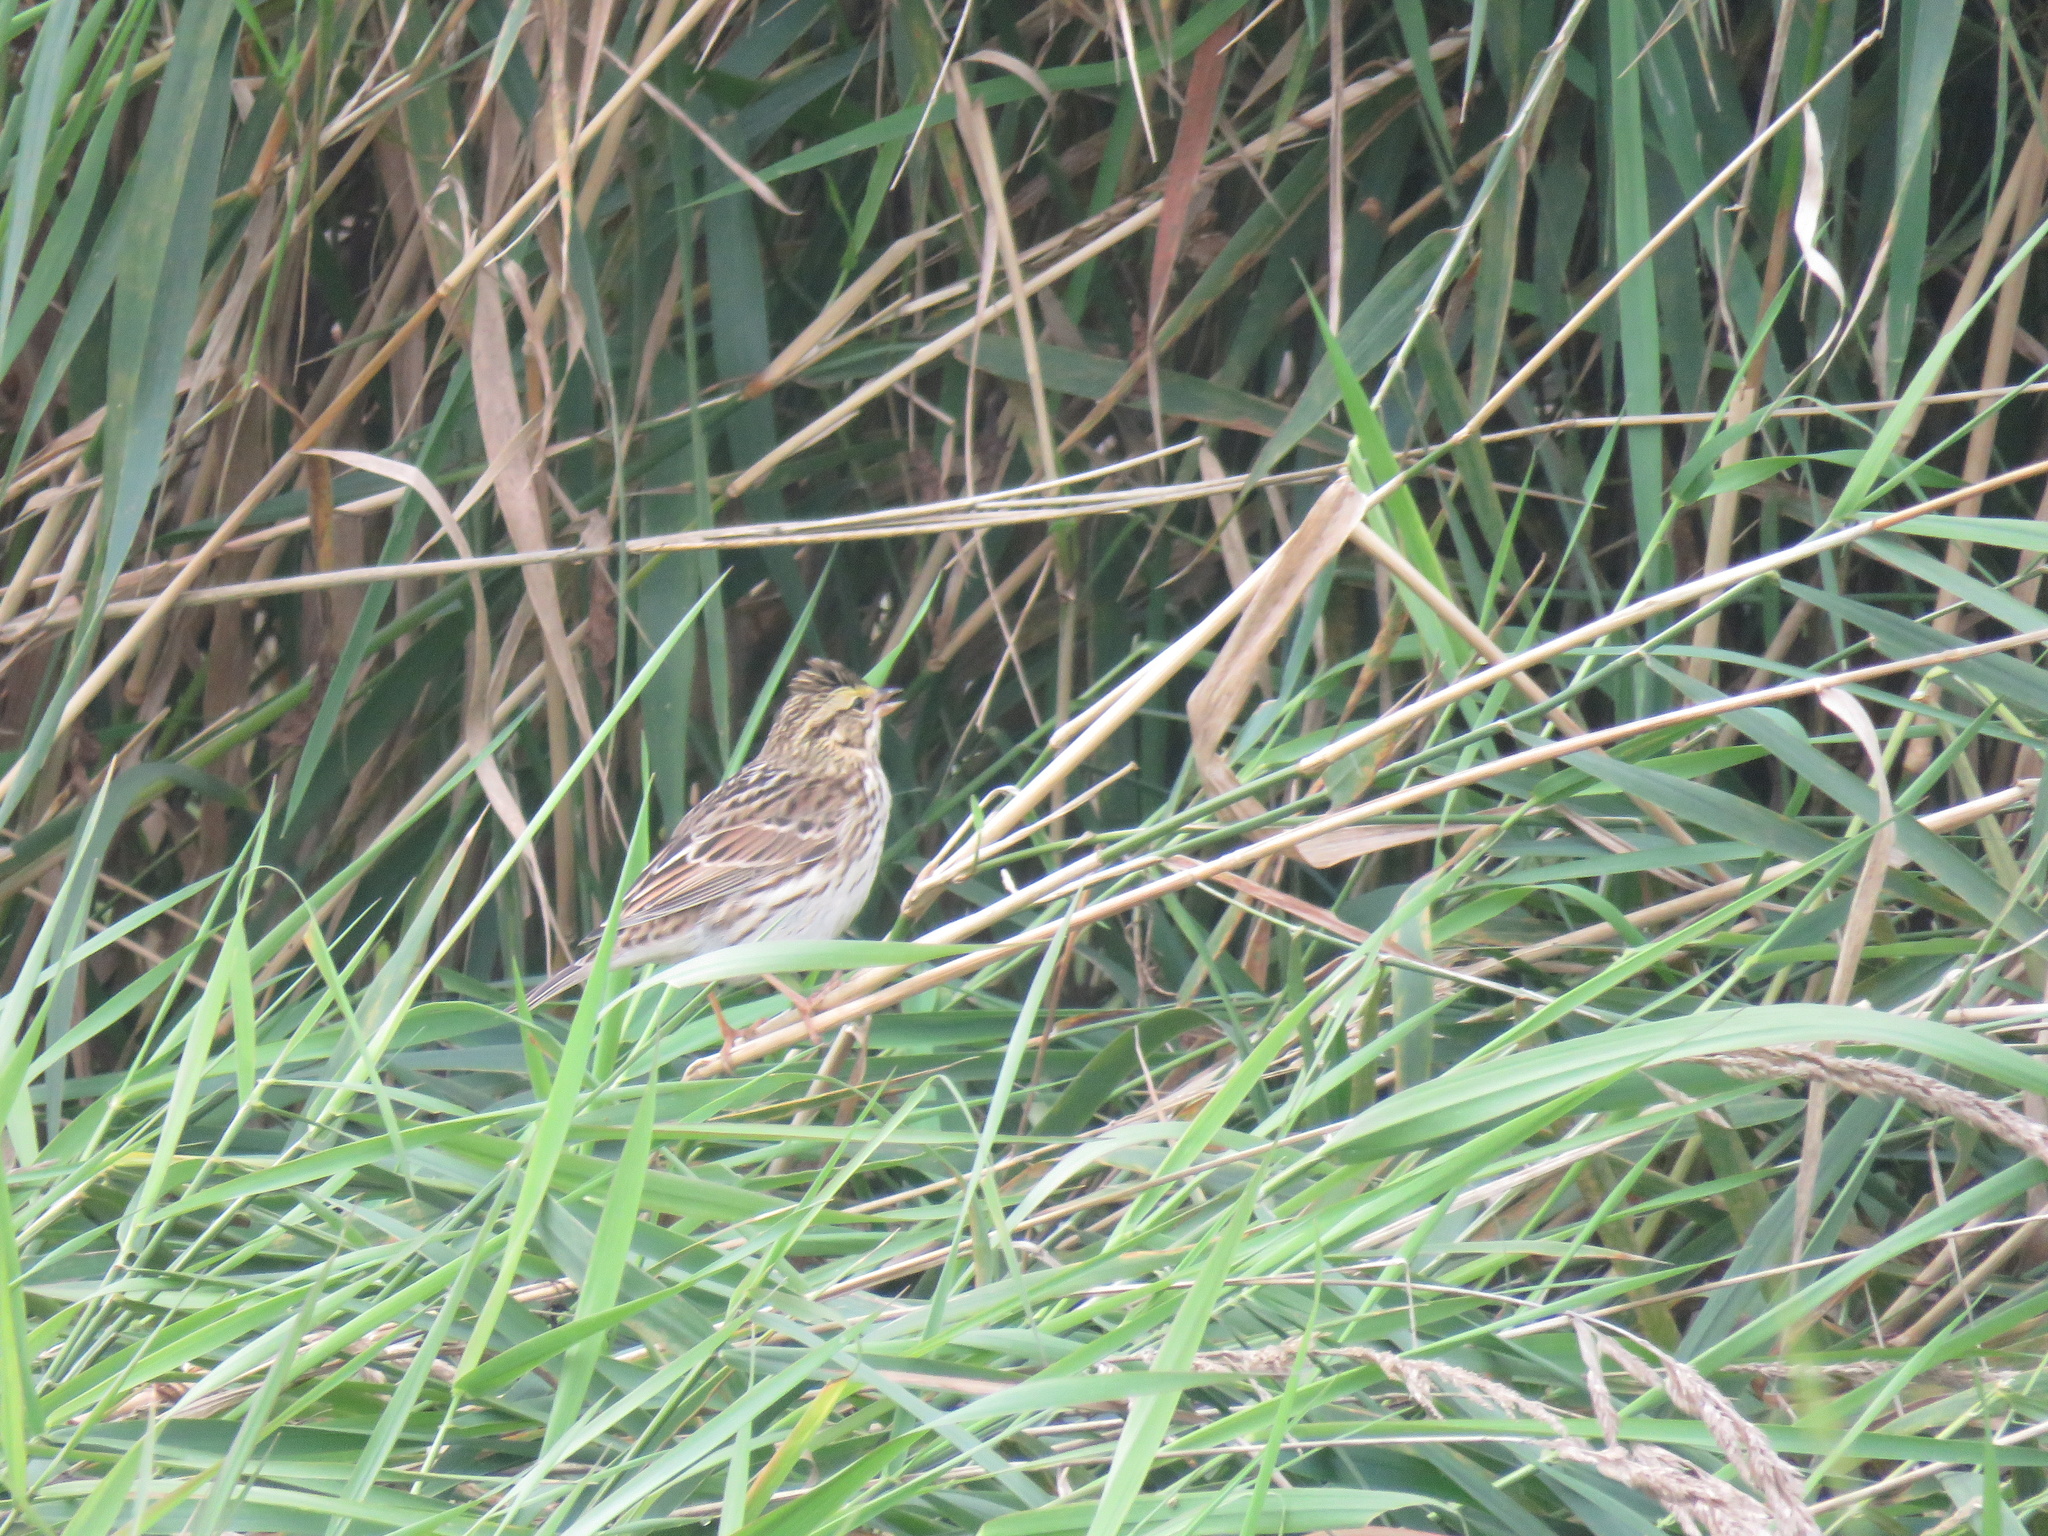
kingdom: Animalia
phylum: Chordata
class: Aves
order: Passeriformes
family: Passerellidae
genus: Passerculus
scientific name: Passerculus sandwichensis
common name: Savannah sparrow
